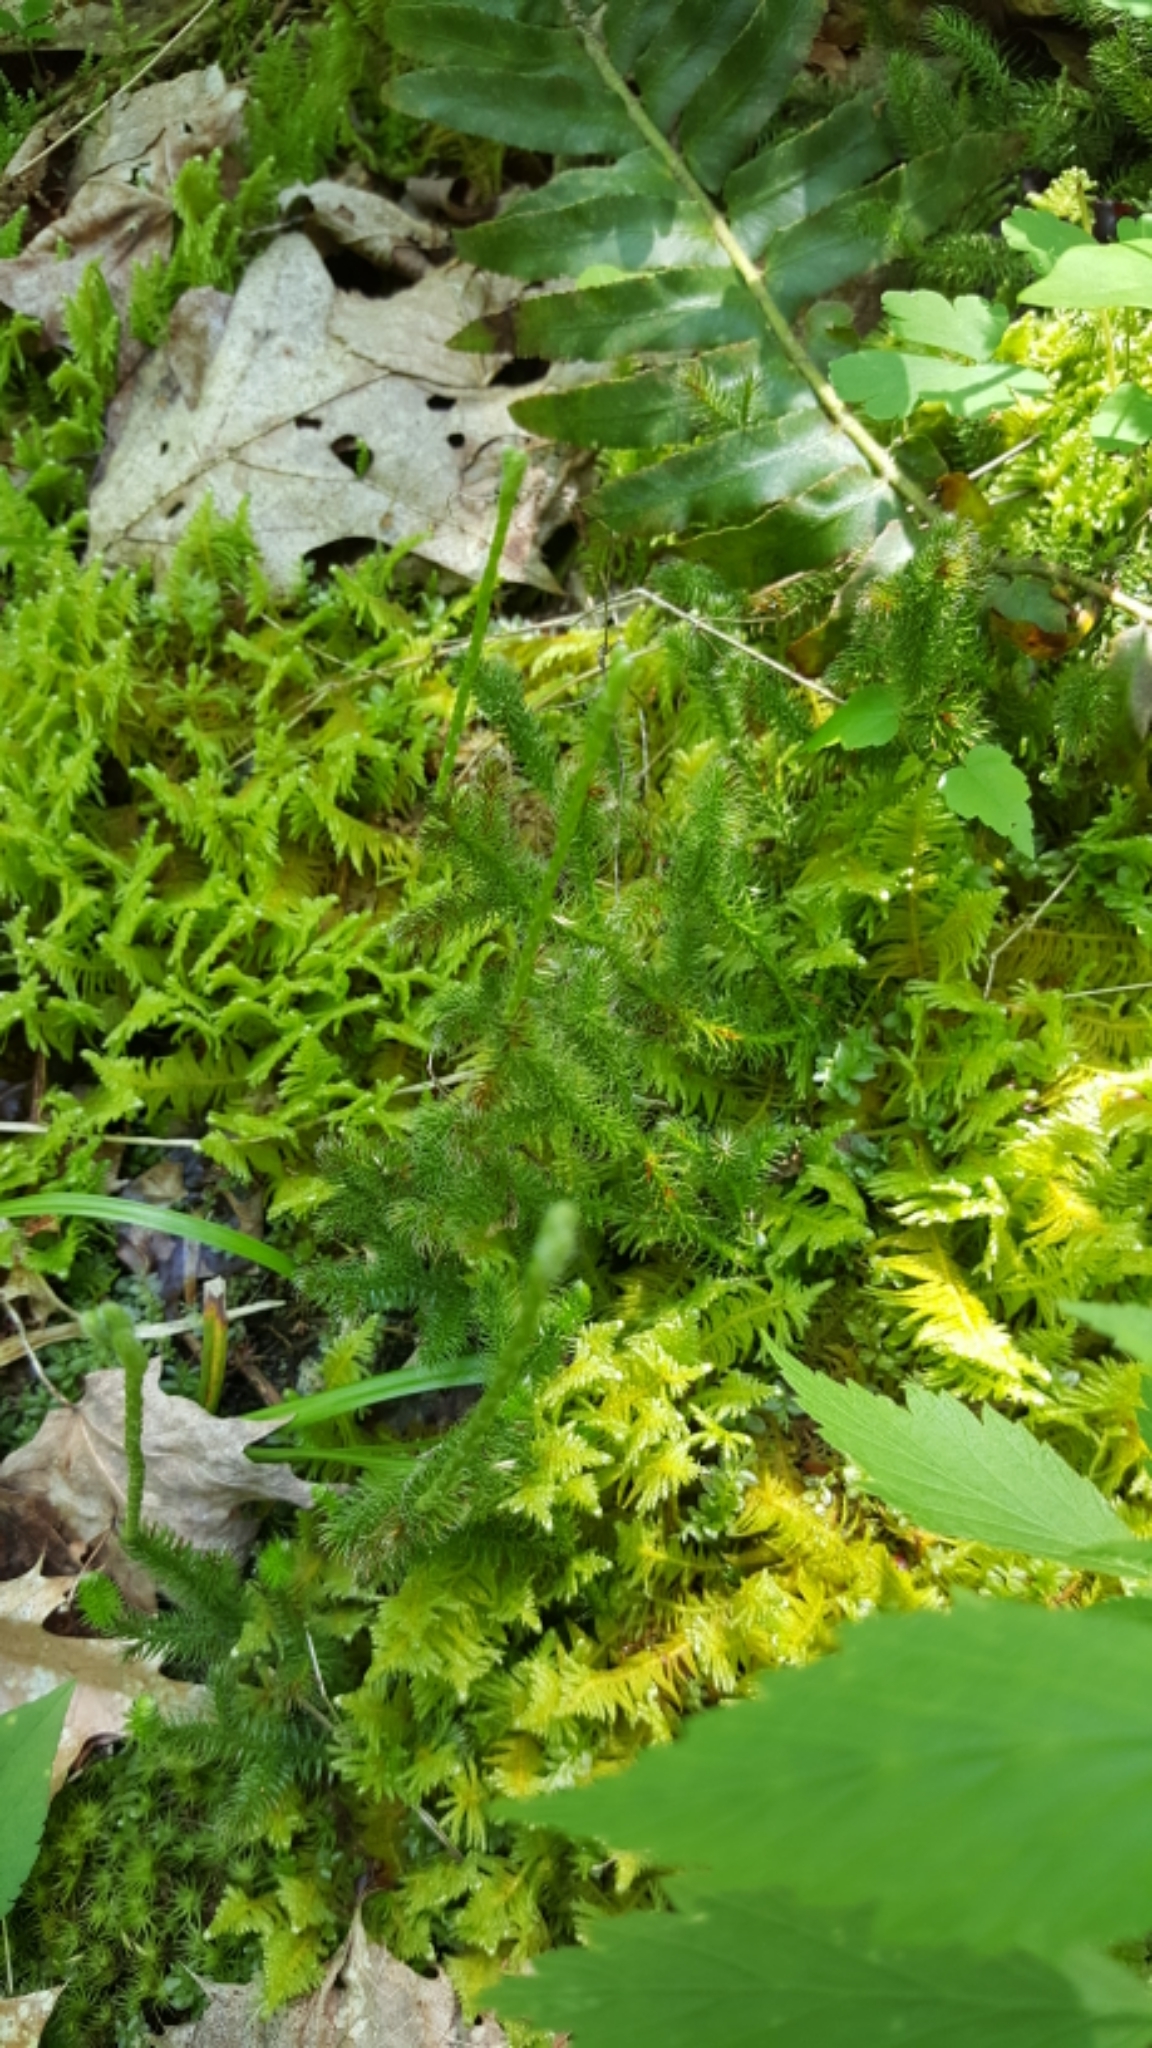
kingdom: Plantae
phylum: Tracheophyta
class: Lycopodiopsida
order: Lycopodiales
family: Lycopodiaceae
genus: Lycopodium
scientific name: Lycopodium clavatum
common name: Stag's-horn clubmoss
